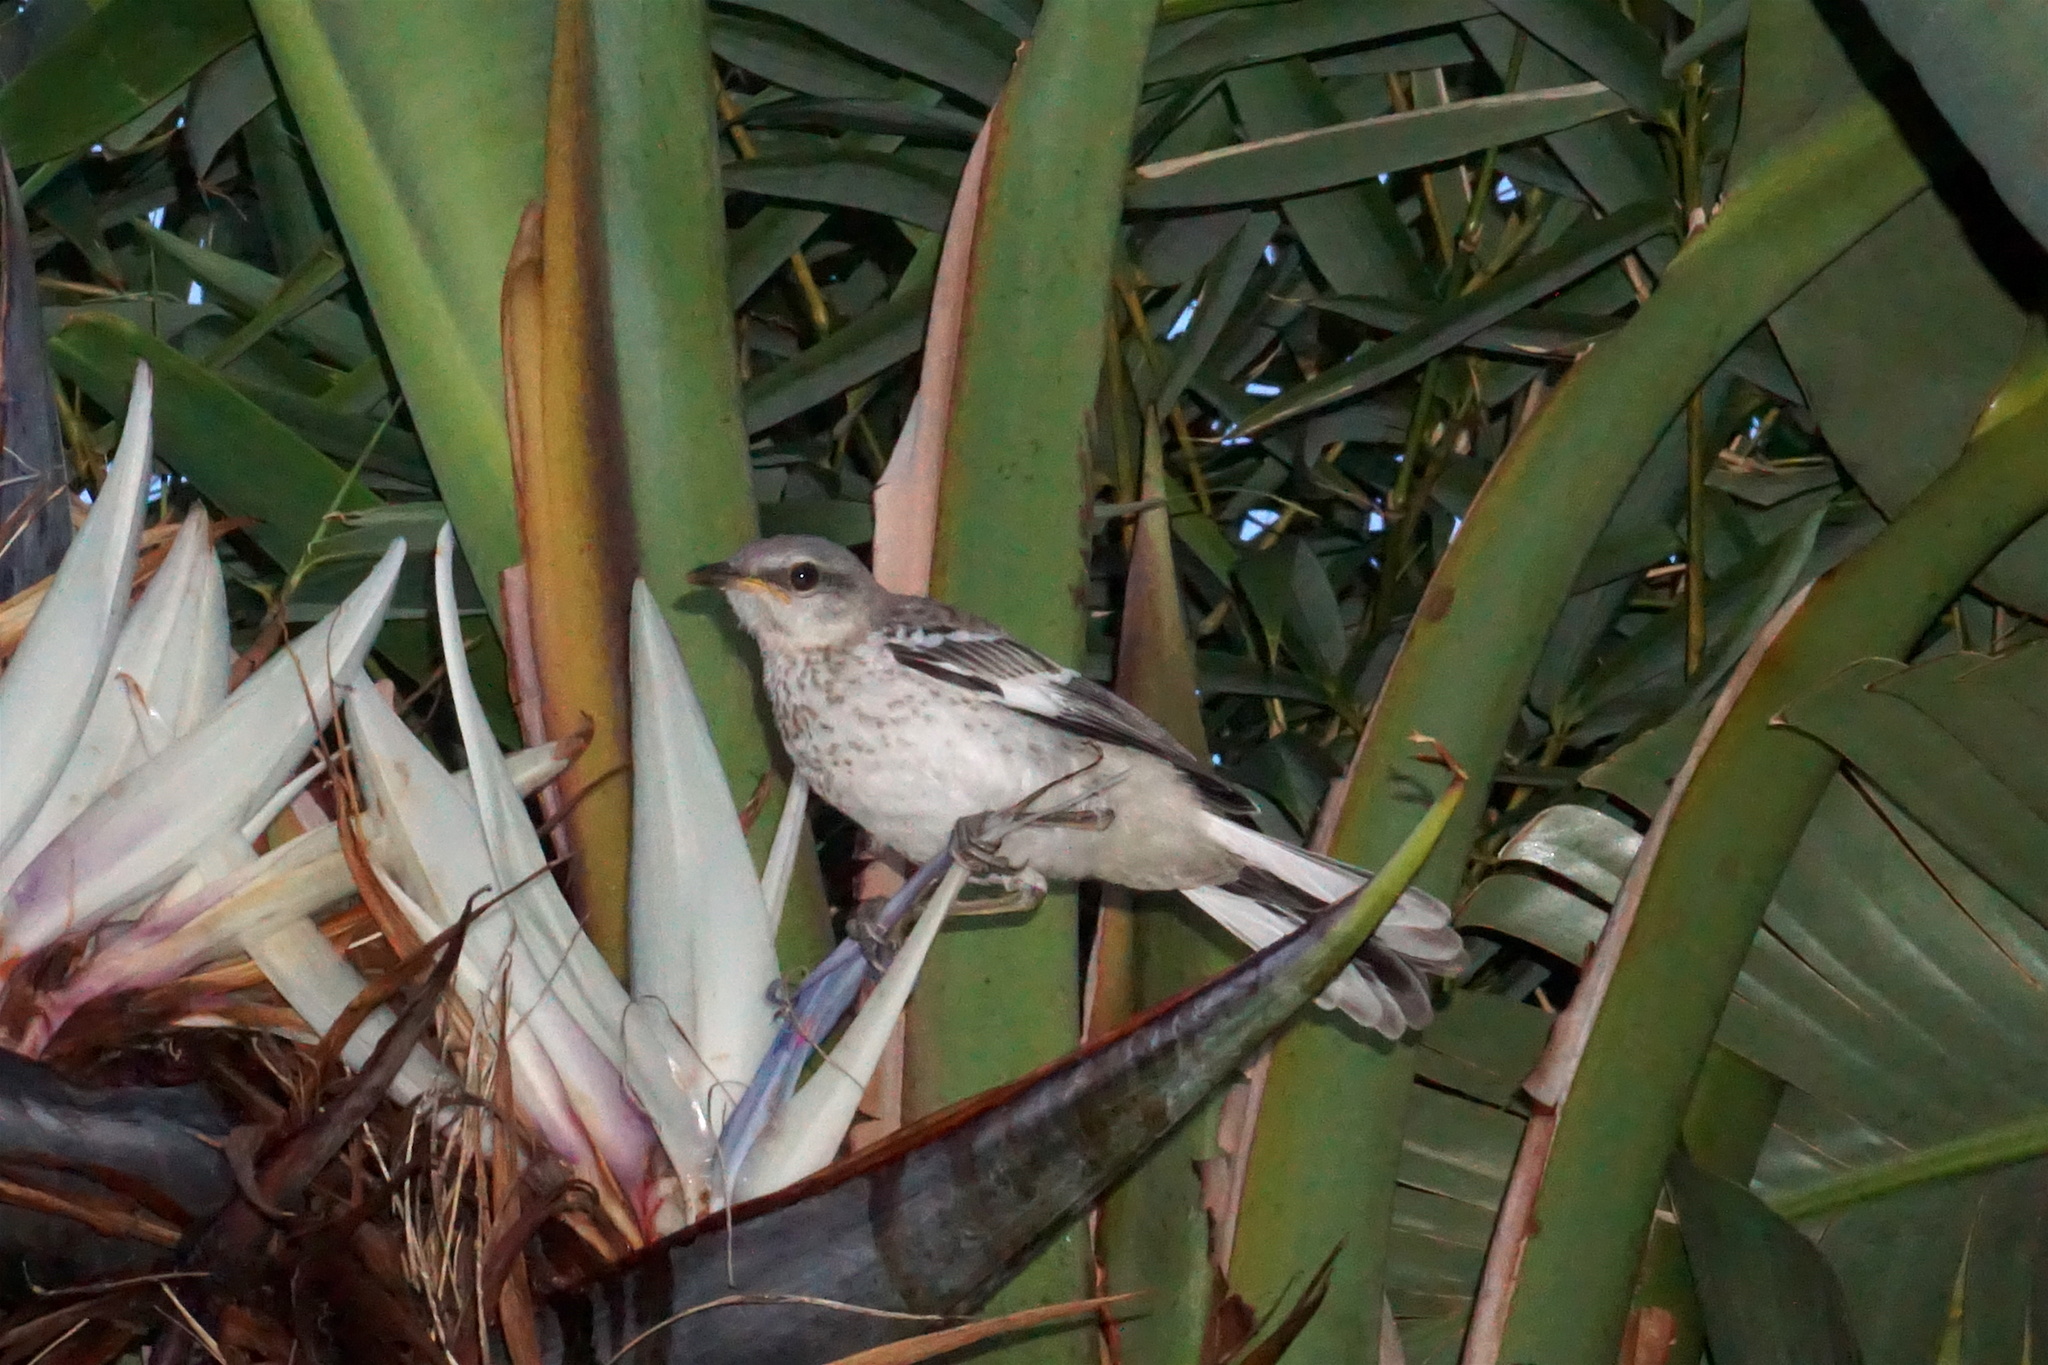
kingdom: Animalia
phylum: Chordata
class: Aves
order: Passeriformes
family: Mimidae
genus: Mimus
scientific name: Mimus polyglottos
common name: Northern mockingbird
